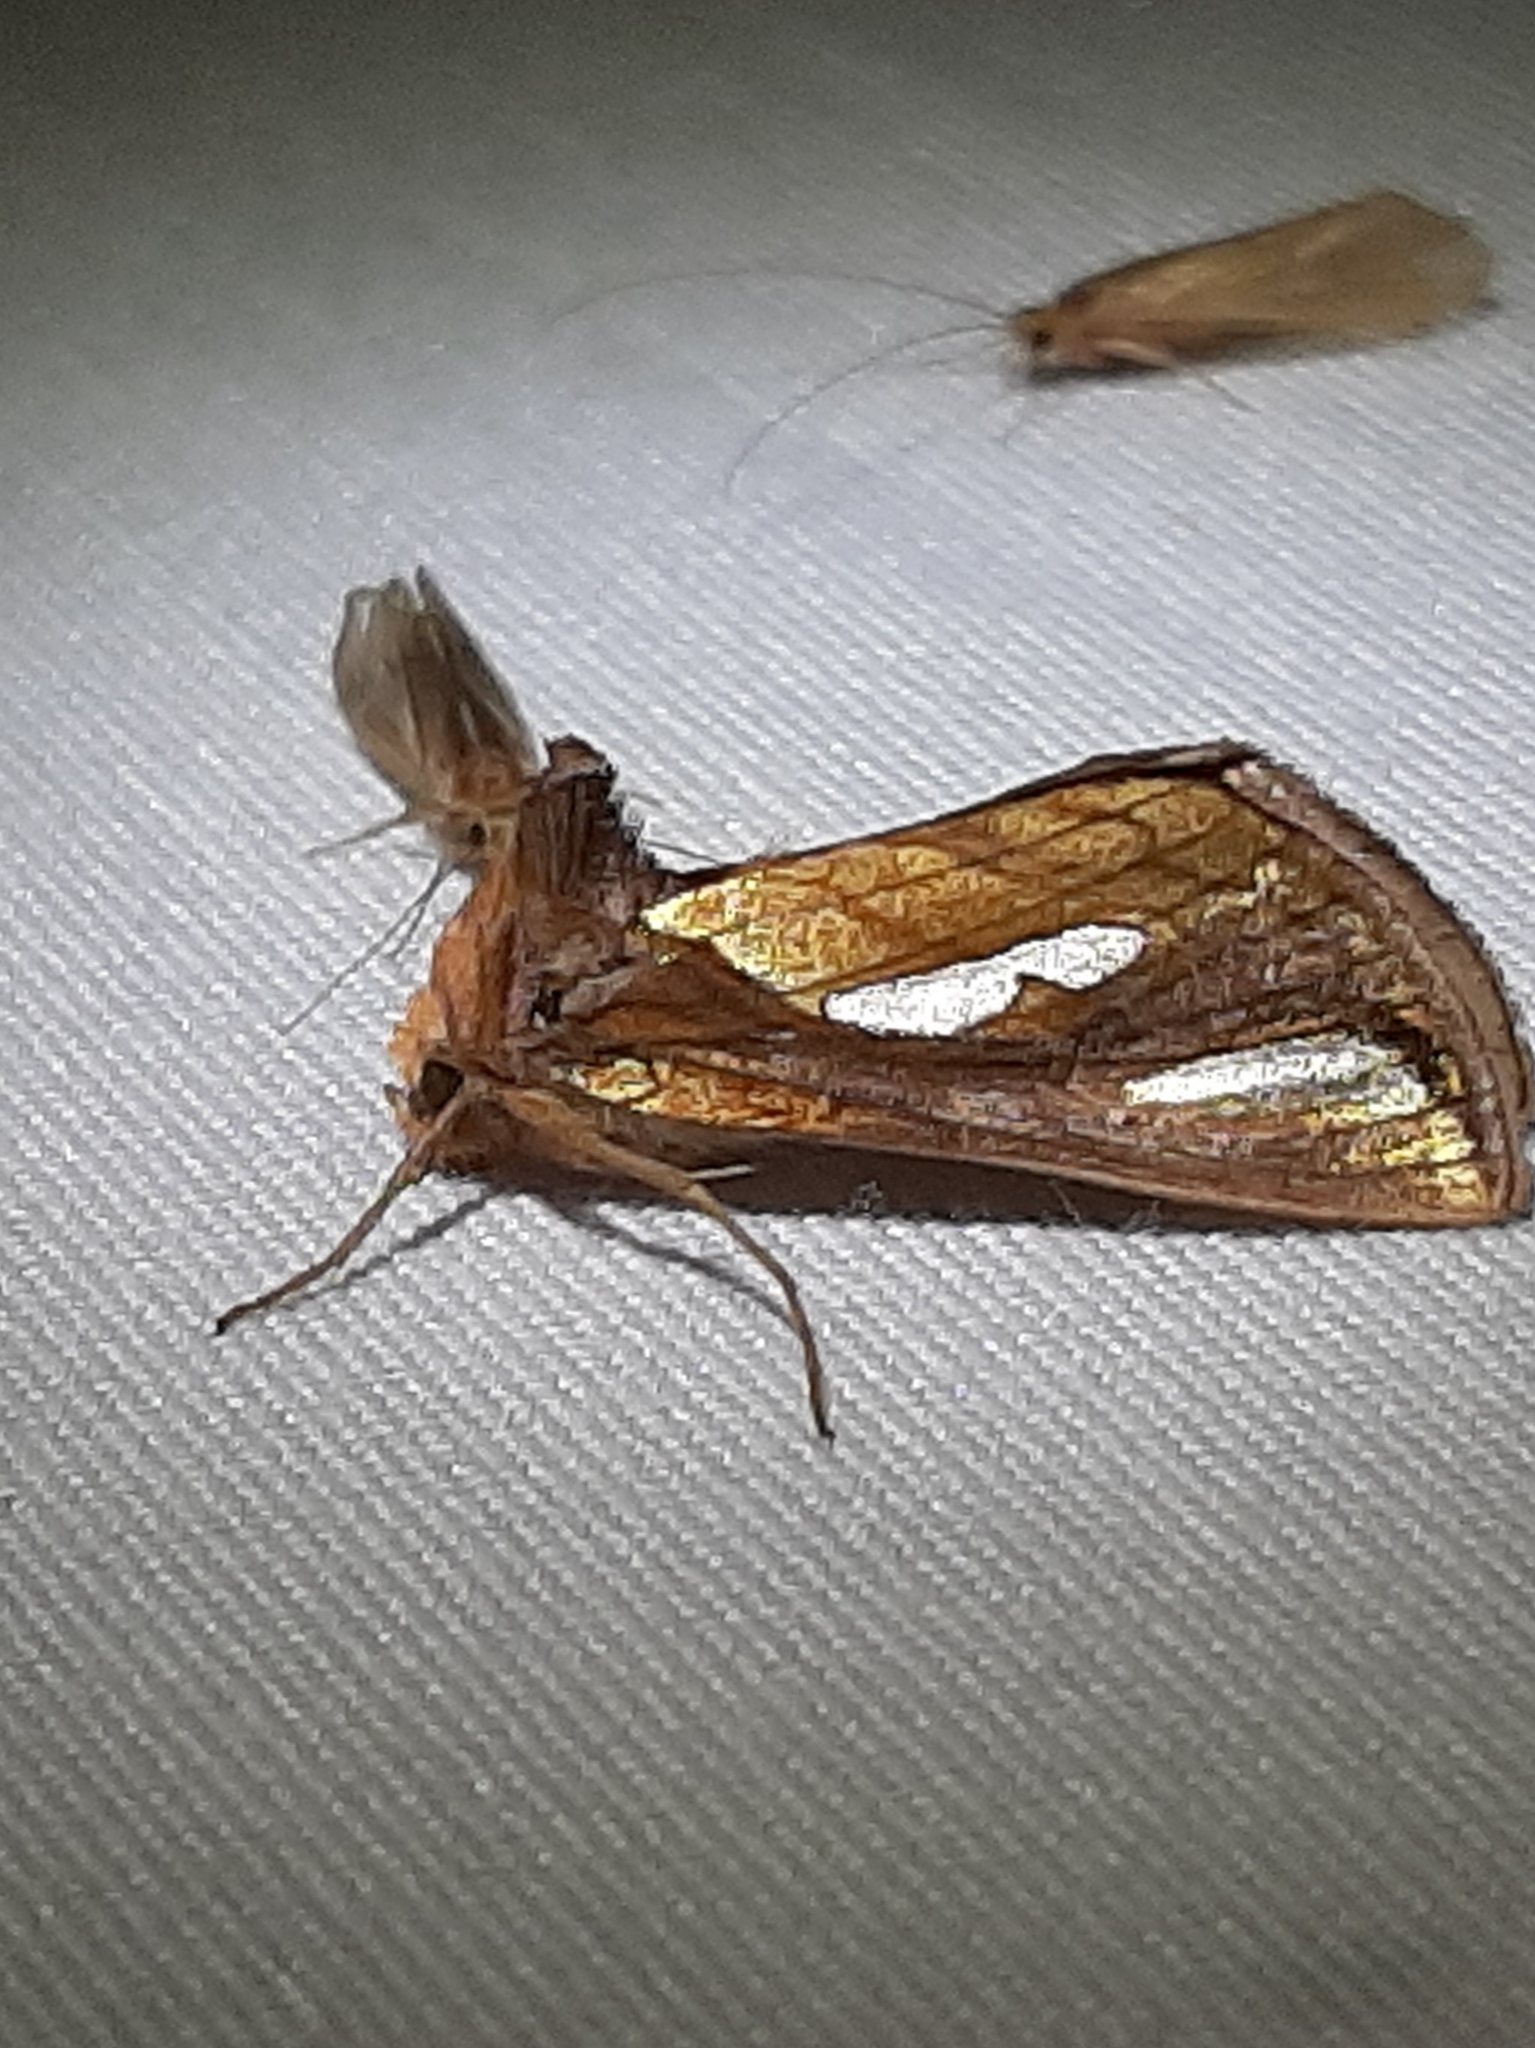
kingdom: Animalia
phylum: Arthropoda
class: Insecta
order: Lepidoptera
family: Noctuidae
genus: Plusia
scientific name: Plusia contexta
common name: Connected looper moth
